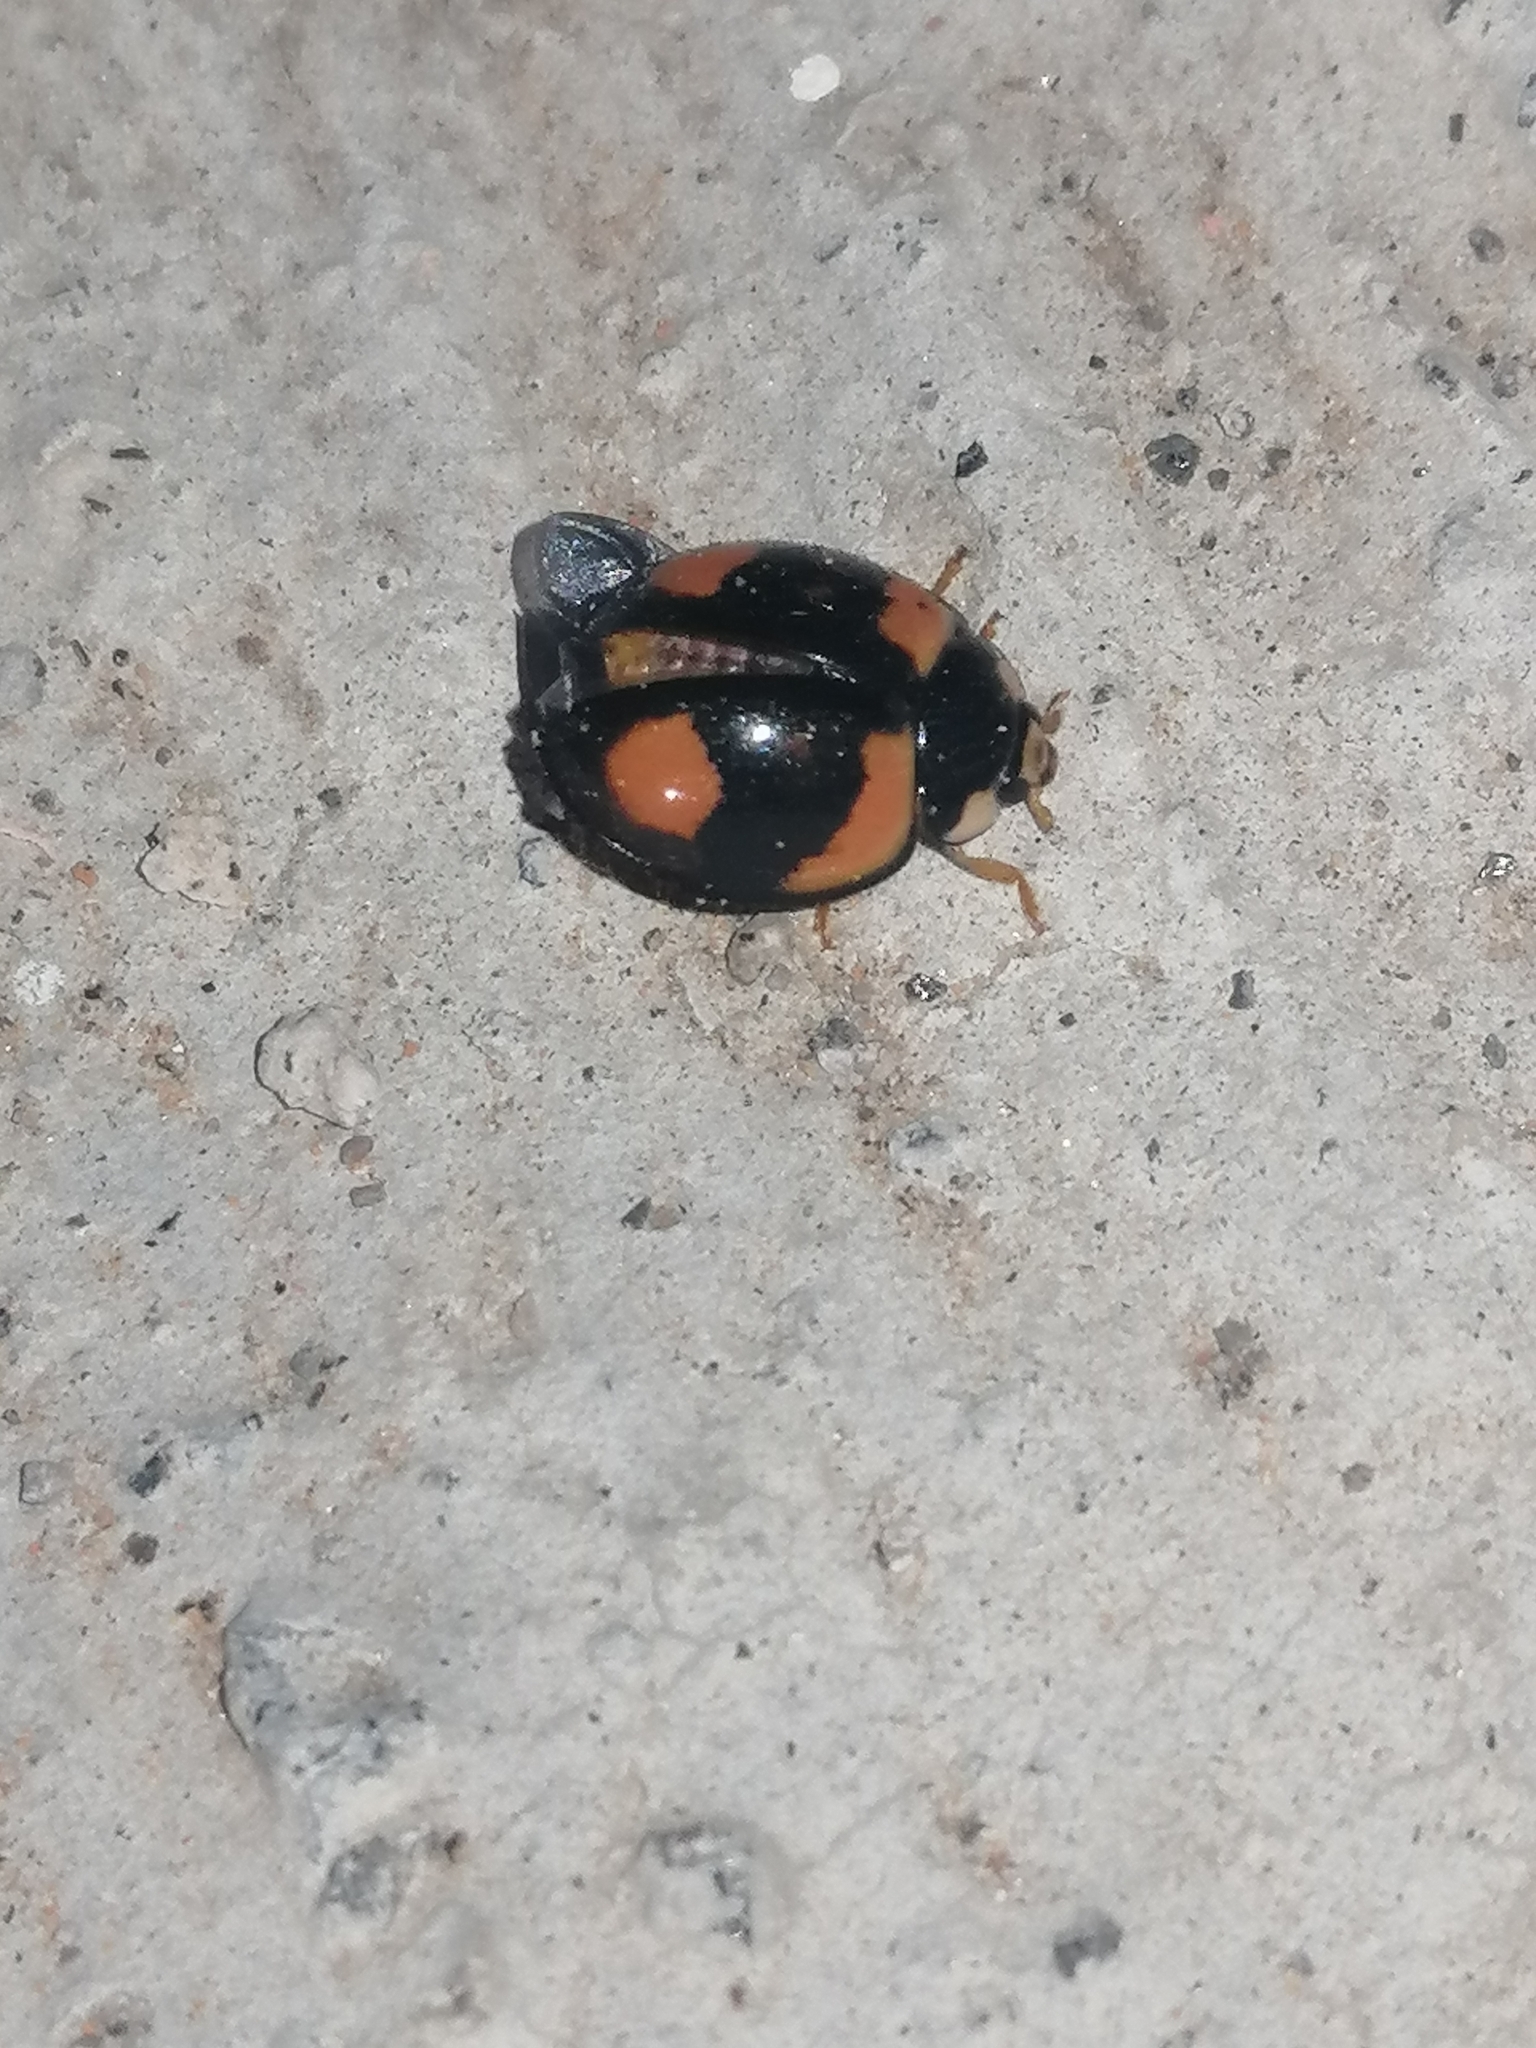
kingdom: Animalia
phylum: Arthropoda
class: Insecta
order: Coleoptera
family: Coccinellidae
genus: Cheilomenes
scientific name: Cheilomenes sexmaculata
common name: Ladybird beetle
